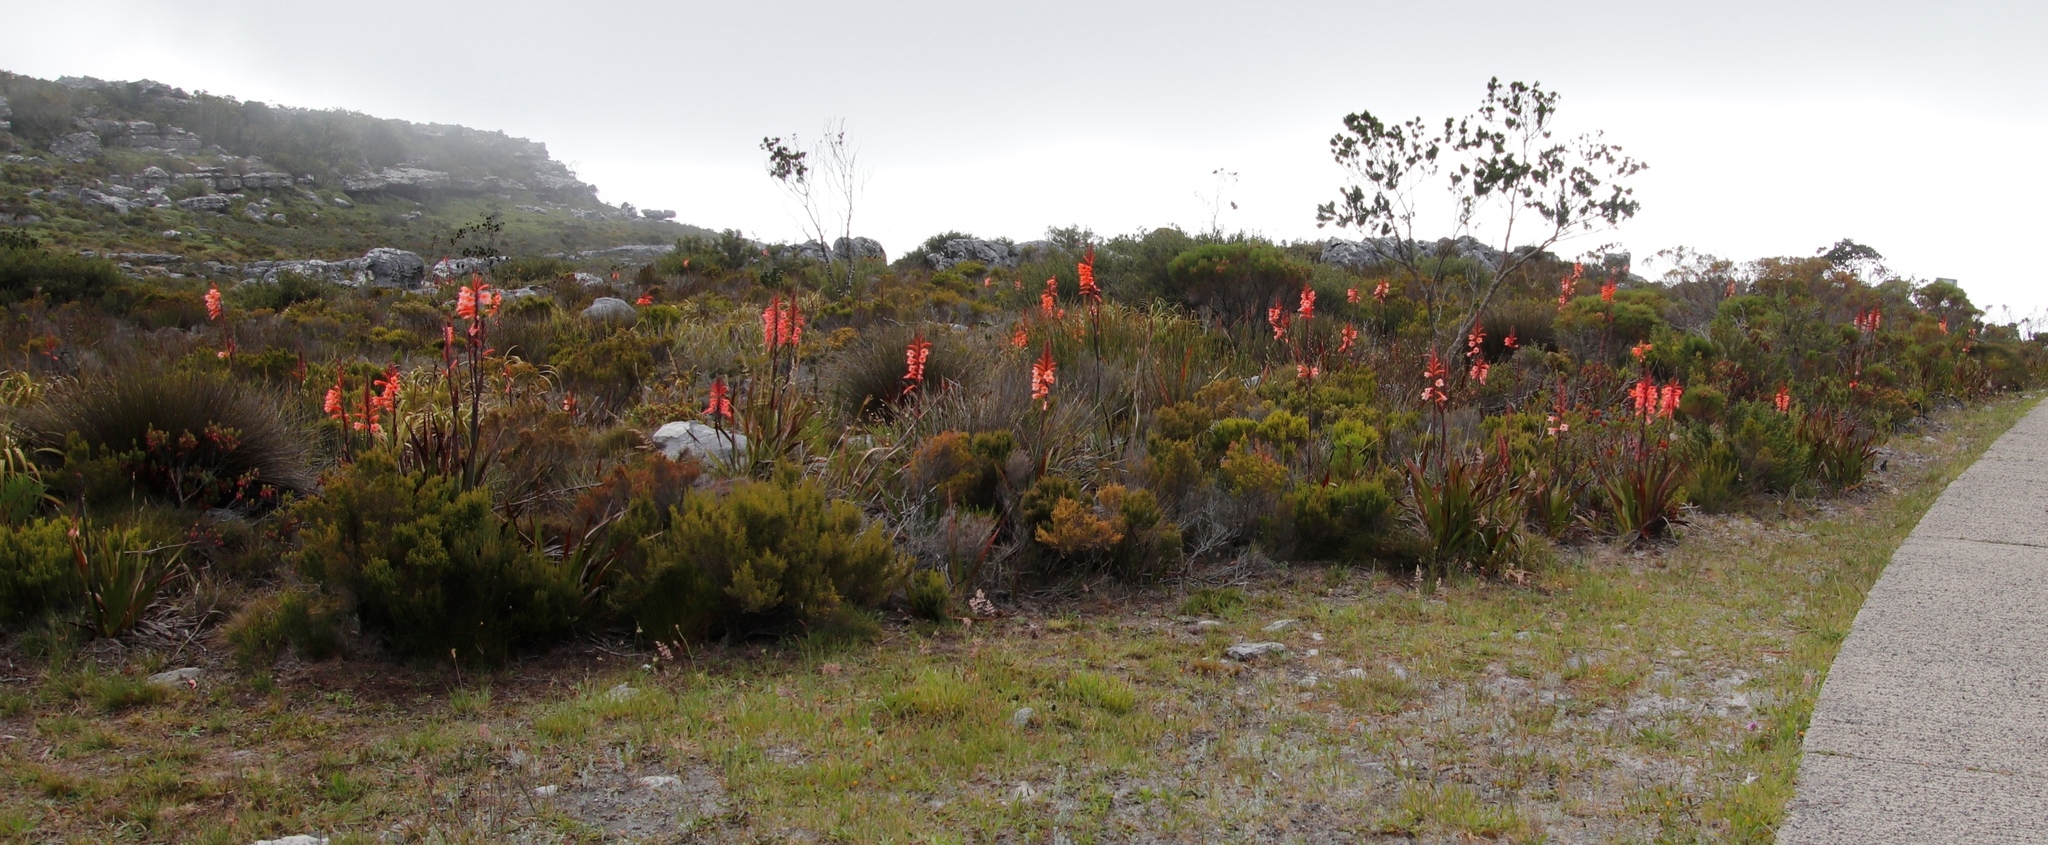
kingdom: Plantae
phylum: Tracheophyta
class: Liliopsida
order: Asparagales
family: Iridaceae
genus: Watsonia
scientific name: Watsonia tabularis
